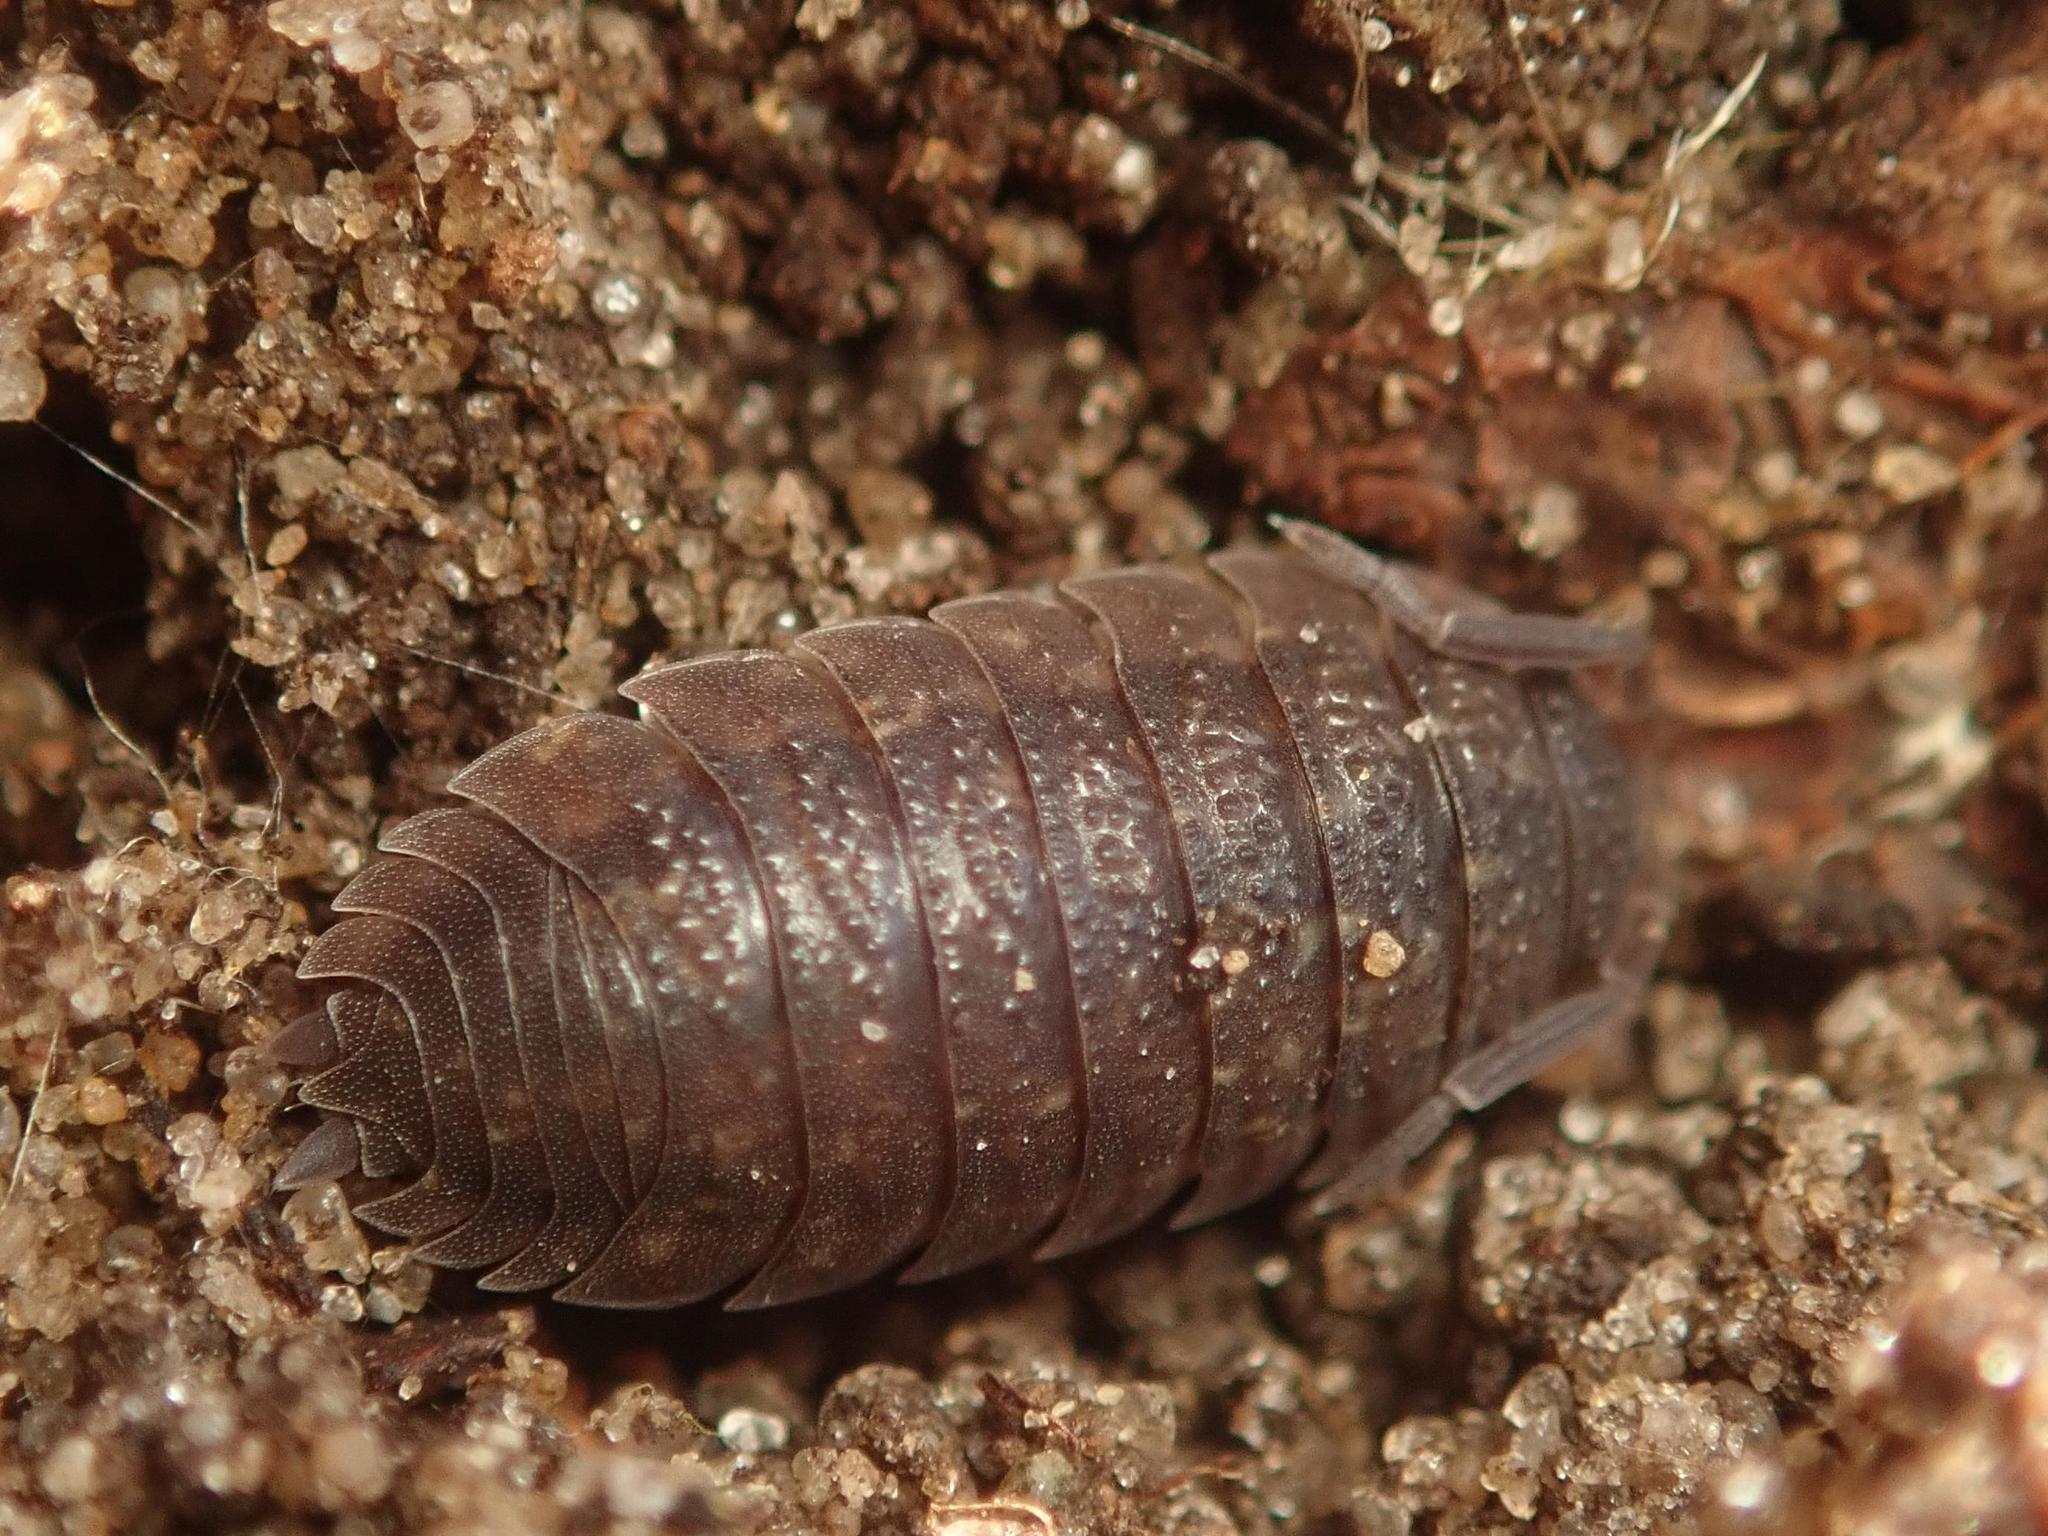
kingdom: Animalia
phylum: Arthropoda
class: Malacostraca
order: Isopoda
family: Porcellionidae
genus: Porcellio
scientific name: Porcellio scaber
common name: Common rough woodlouse
